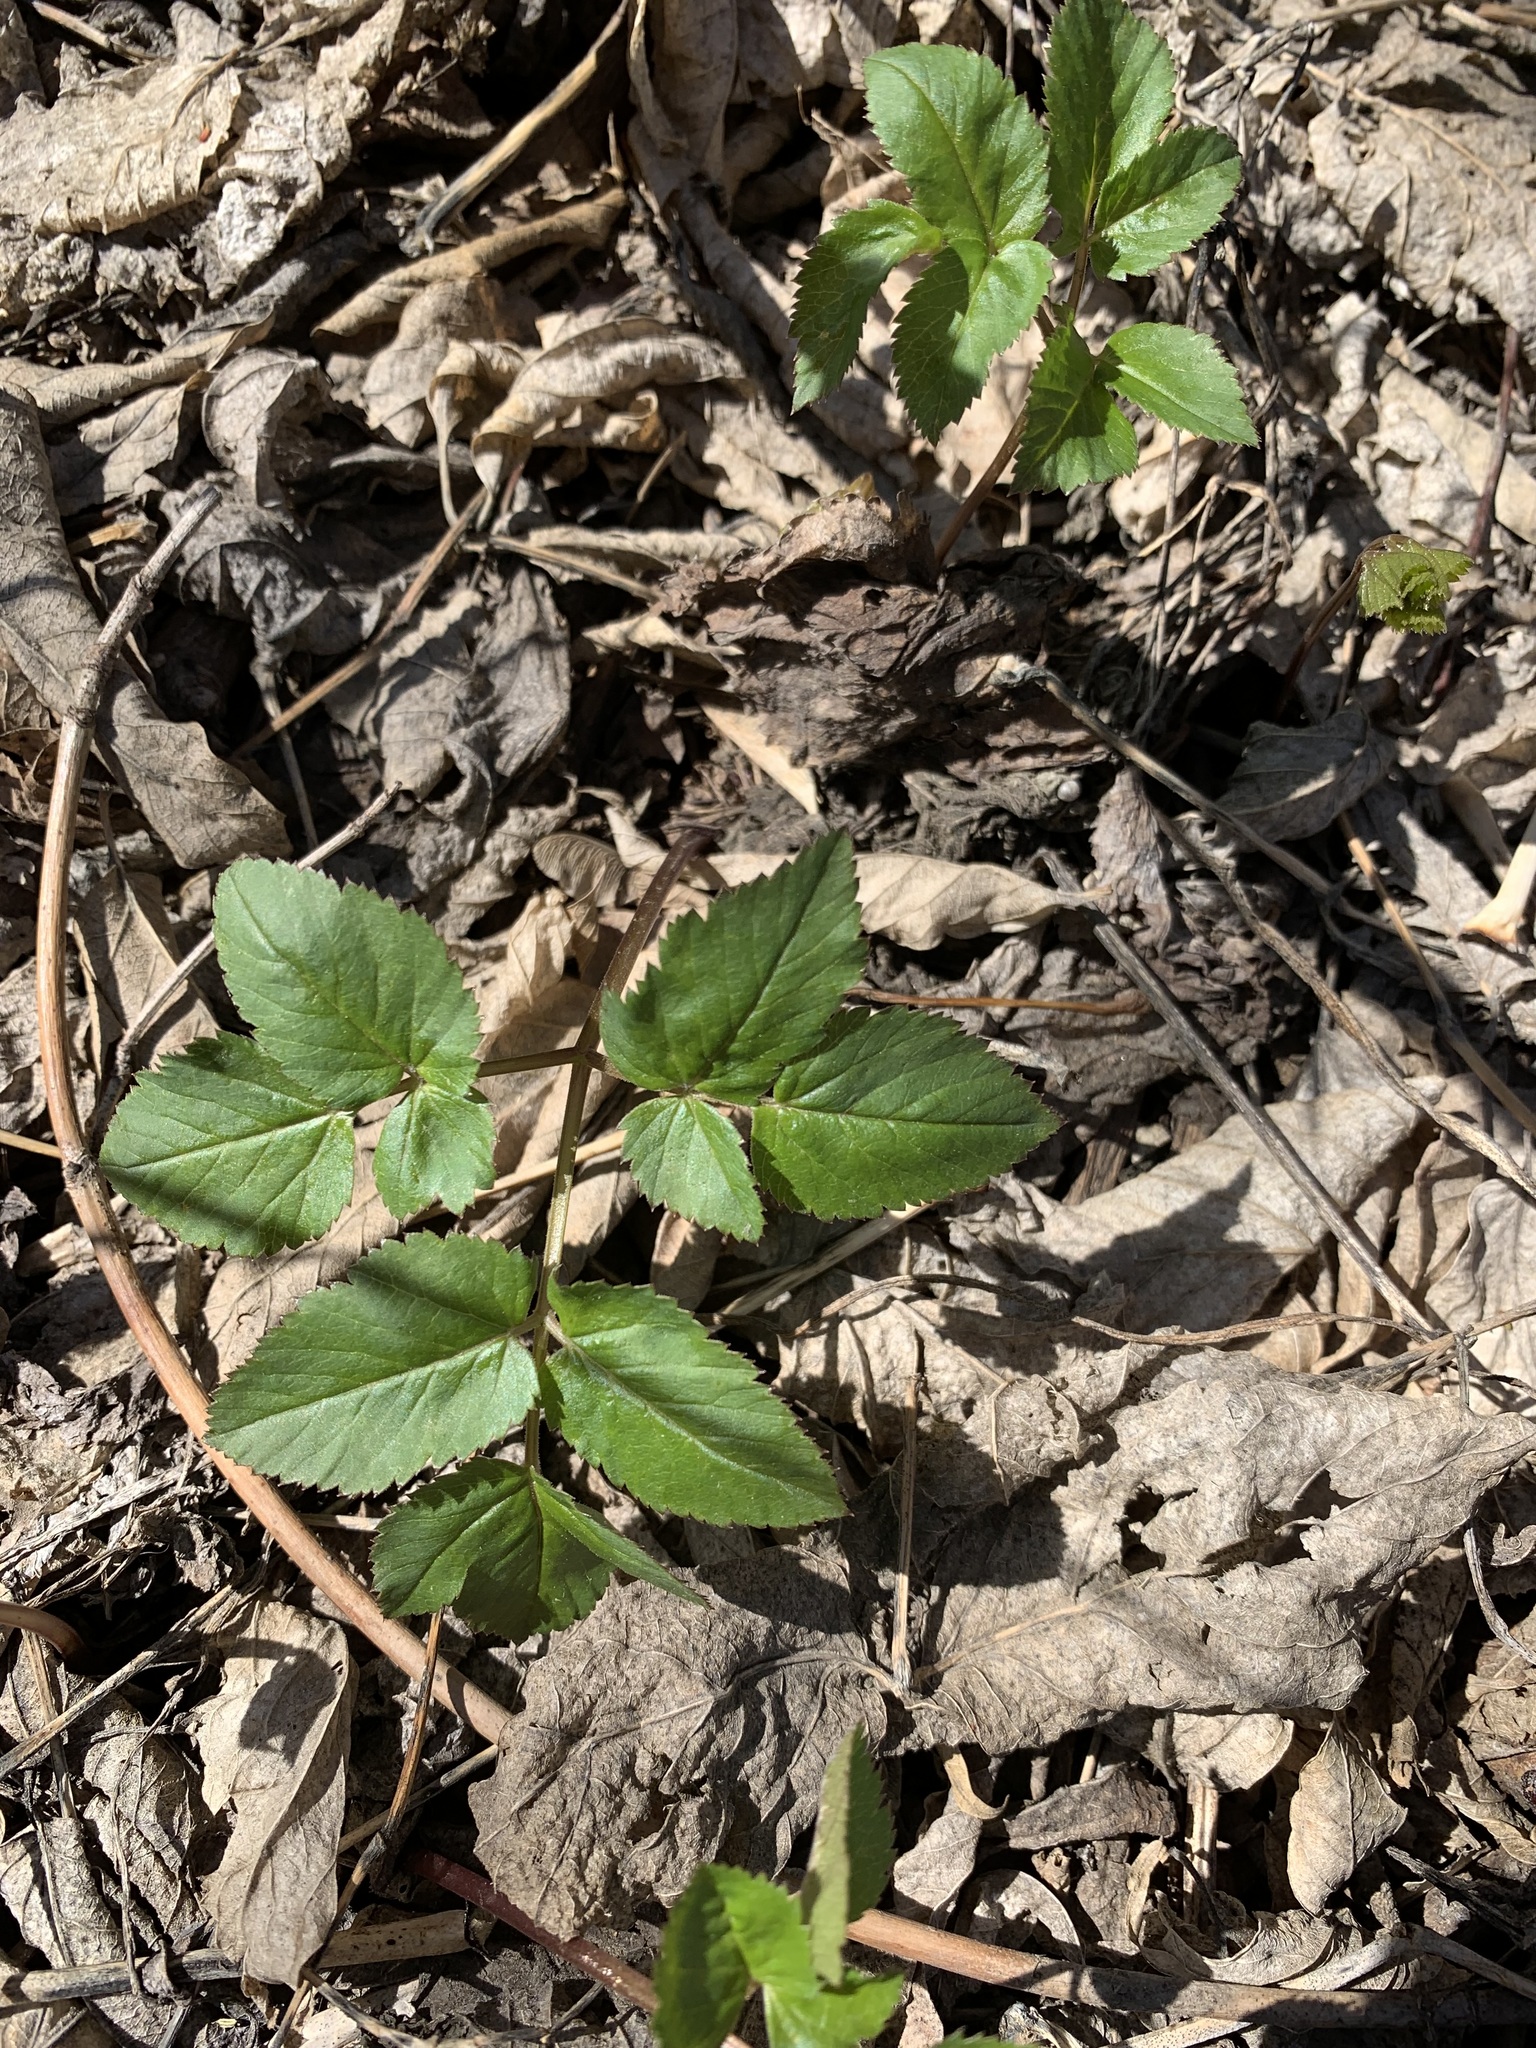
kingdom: Plantae
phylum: Tracheophyta
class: Magnoliopsida
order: Apiales
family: Apiaceae
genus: Aegopodium
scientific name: Aegopodium podagraria
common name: Ground-elder
